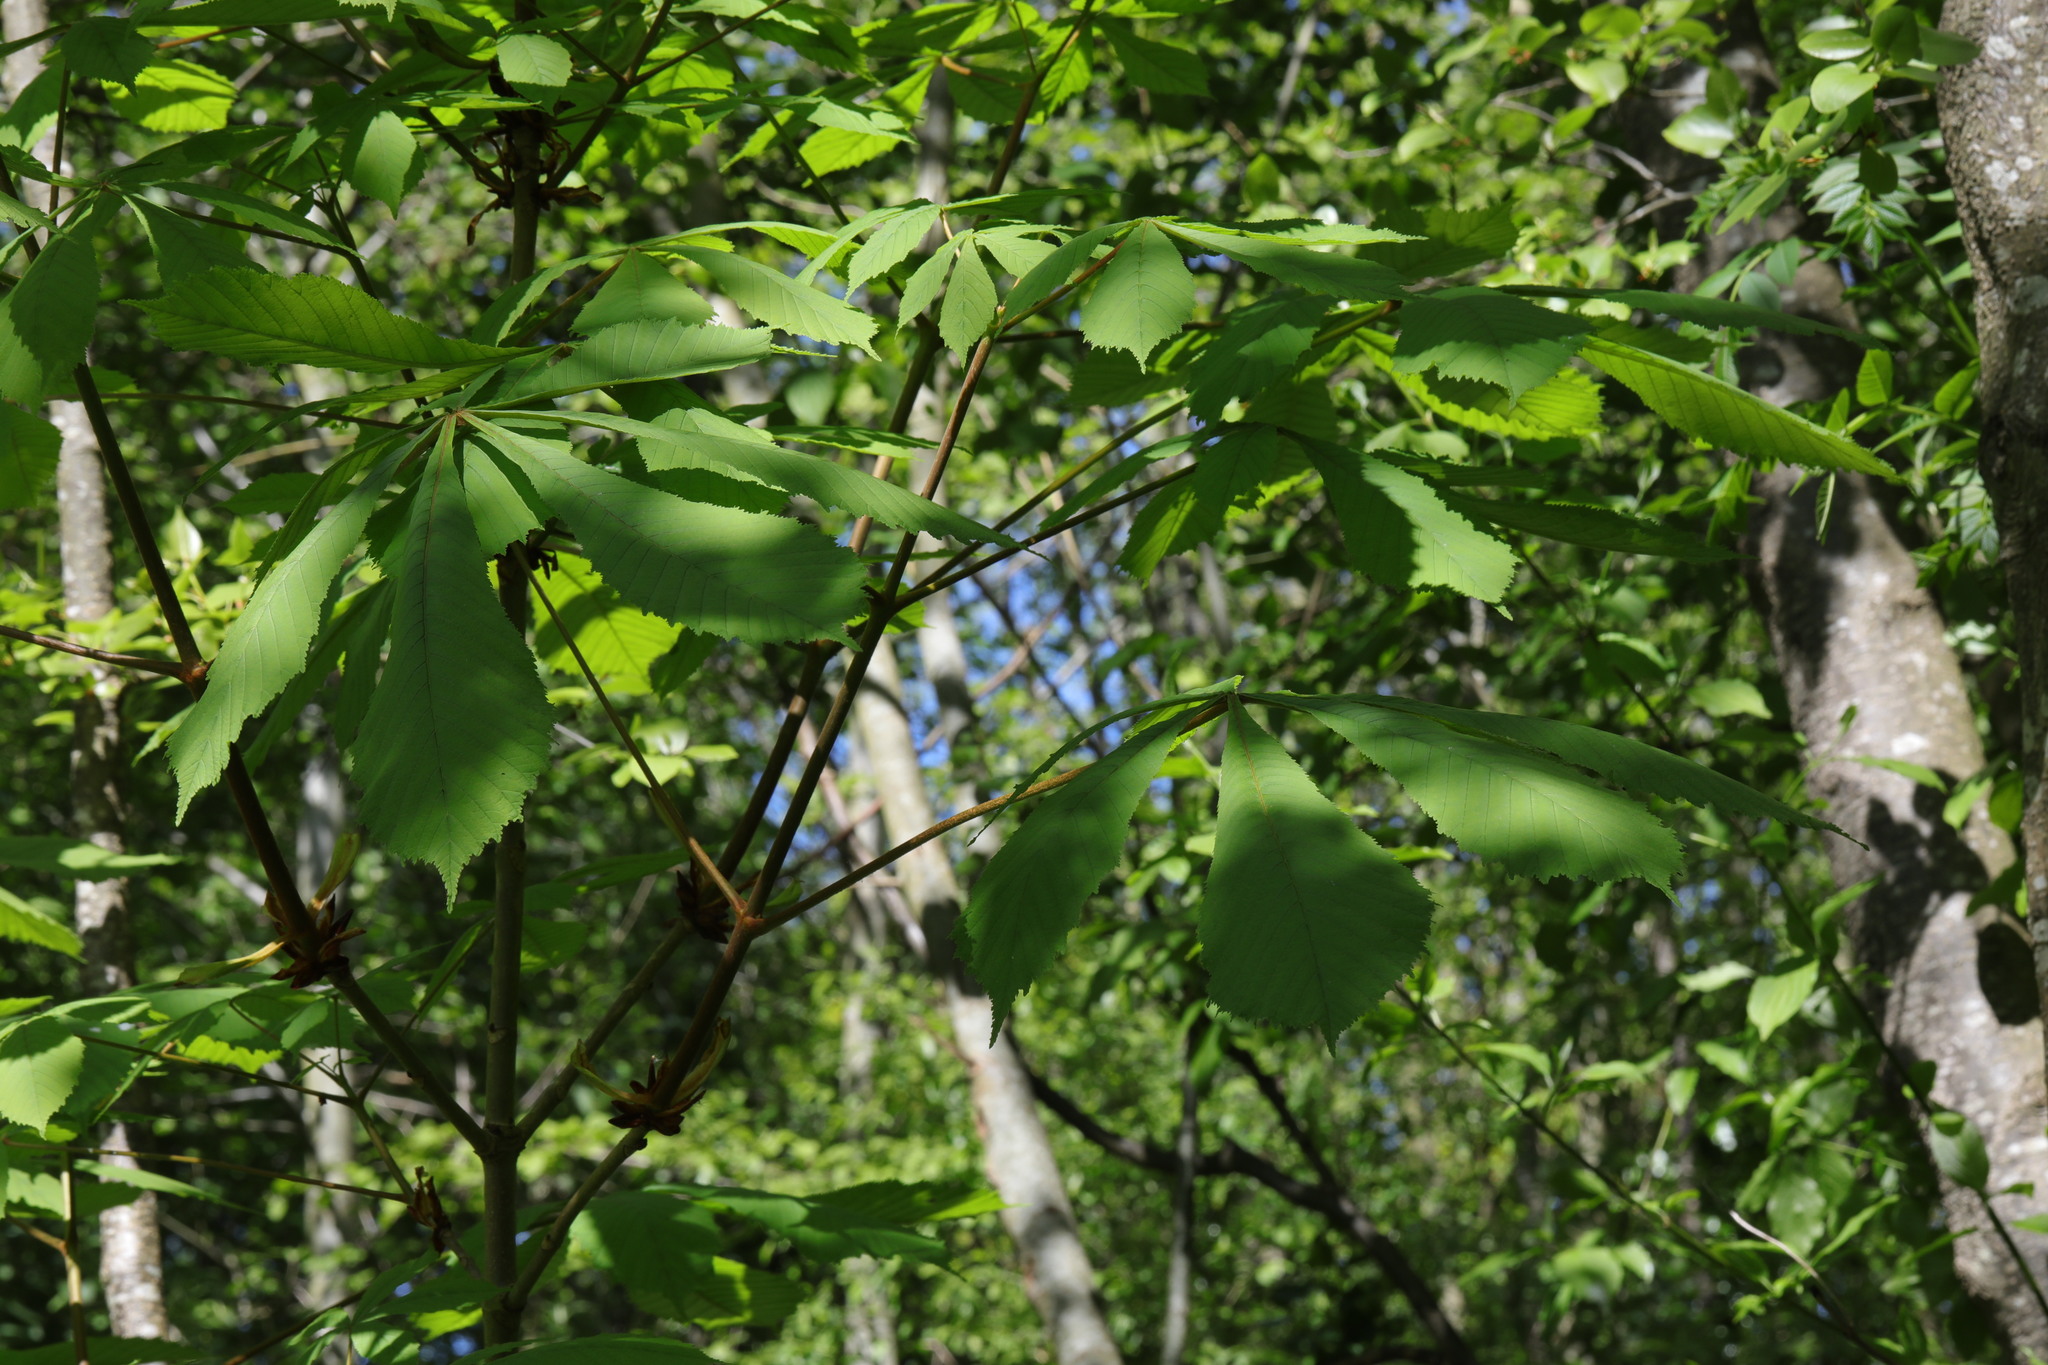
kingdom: Plantae
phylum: Tracheophyta
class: Magnoliopsida
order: Sapindales
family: Sapindaceae
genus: Aesculus
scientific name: Aesculus hippocastanum
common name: Horse-chestnut
